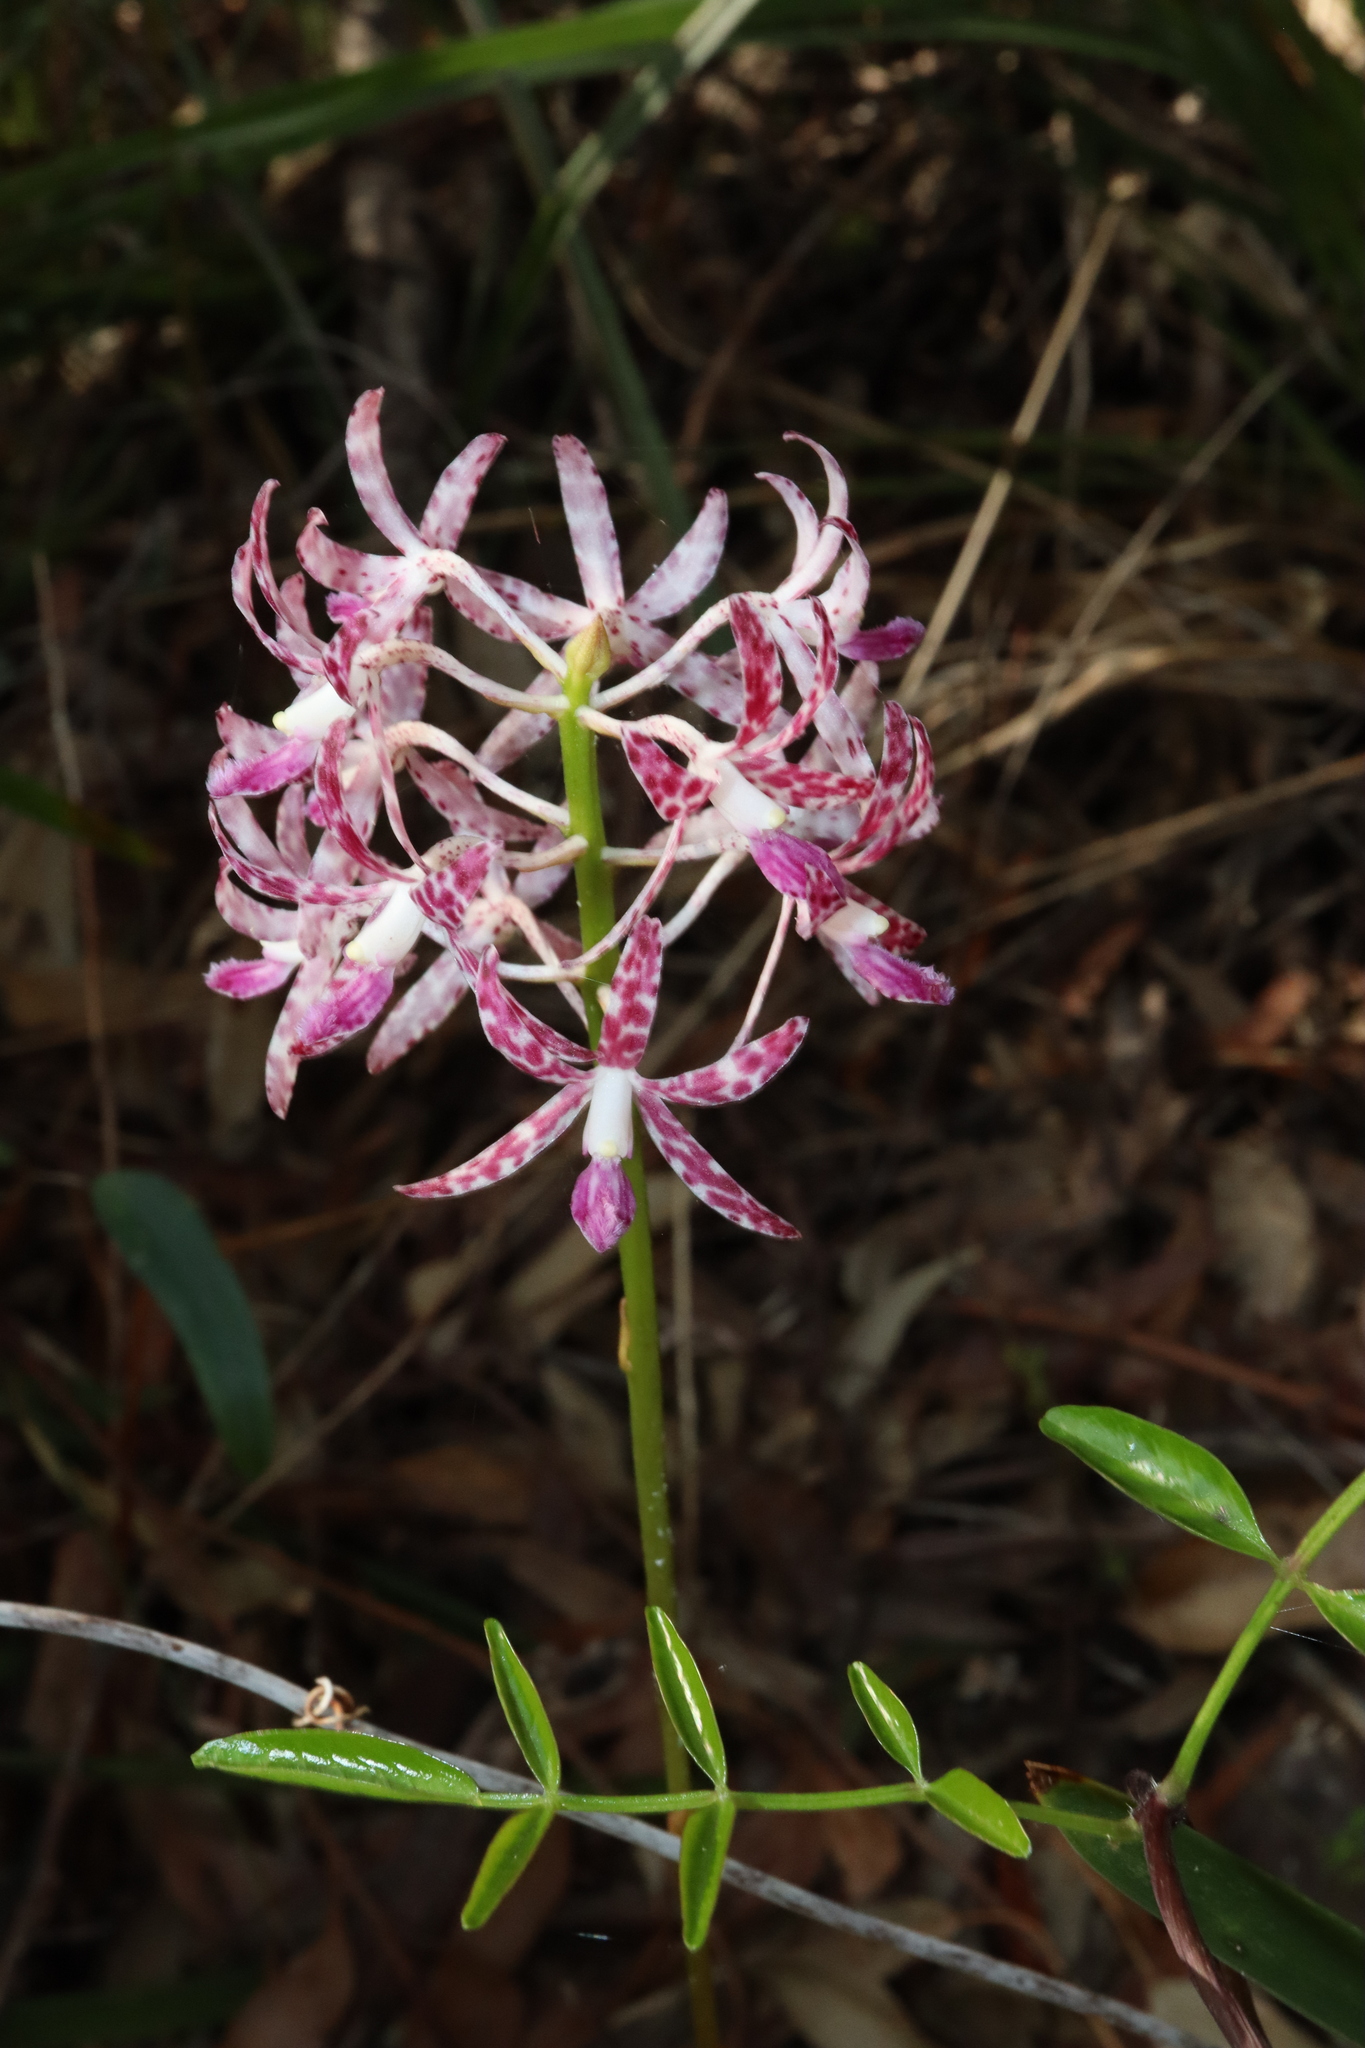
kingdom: Plantae
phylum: Tracheophyta
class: Liliopsida
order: Asparagales
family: Orchidaceae
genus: Dipodium
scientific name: Dipodium variegatum
